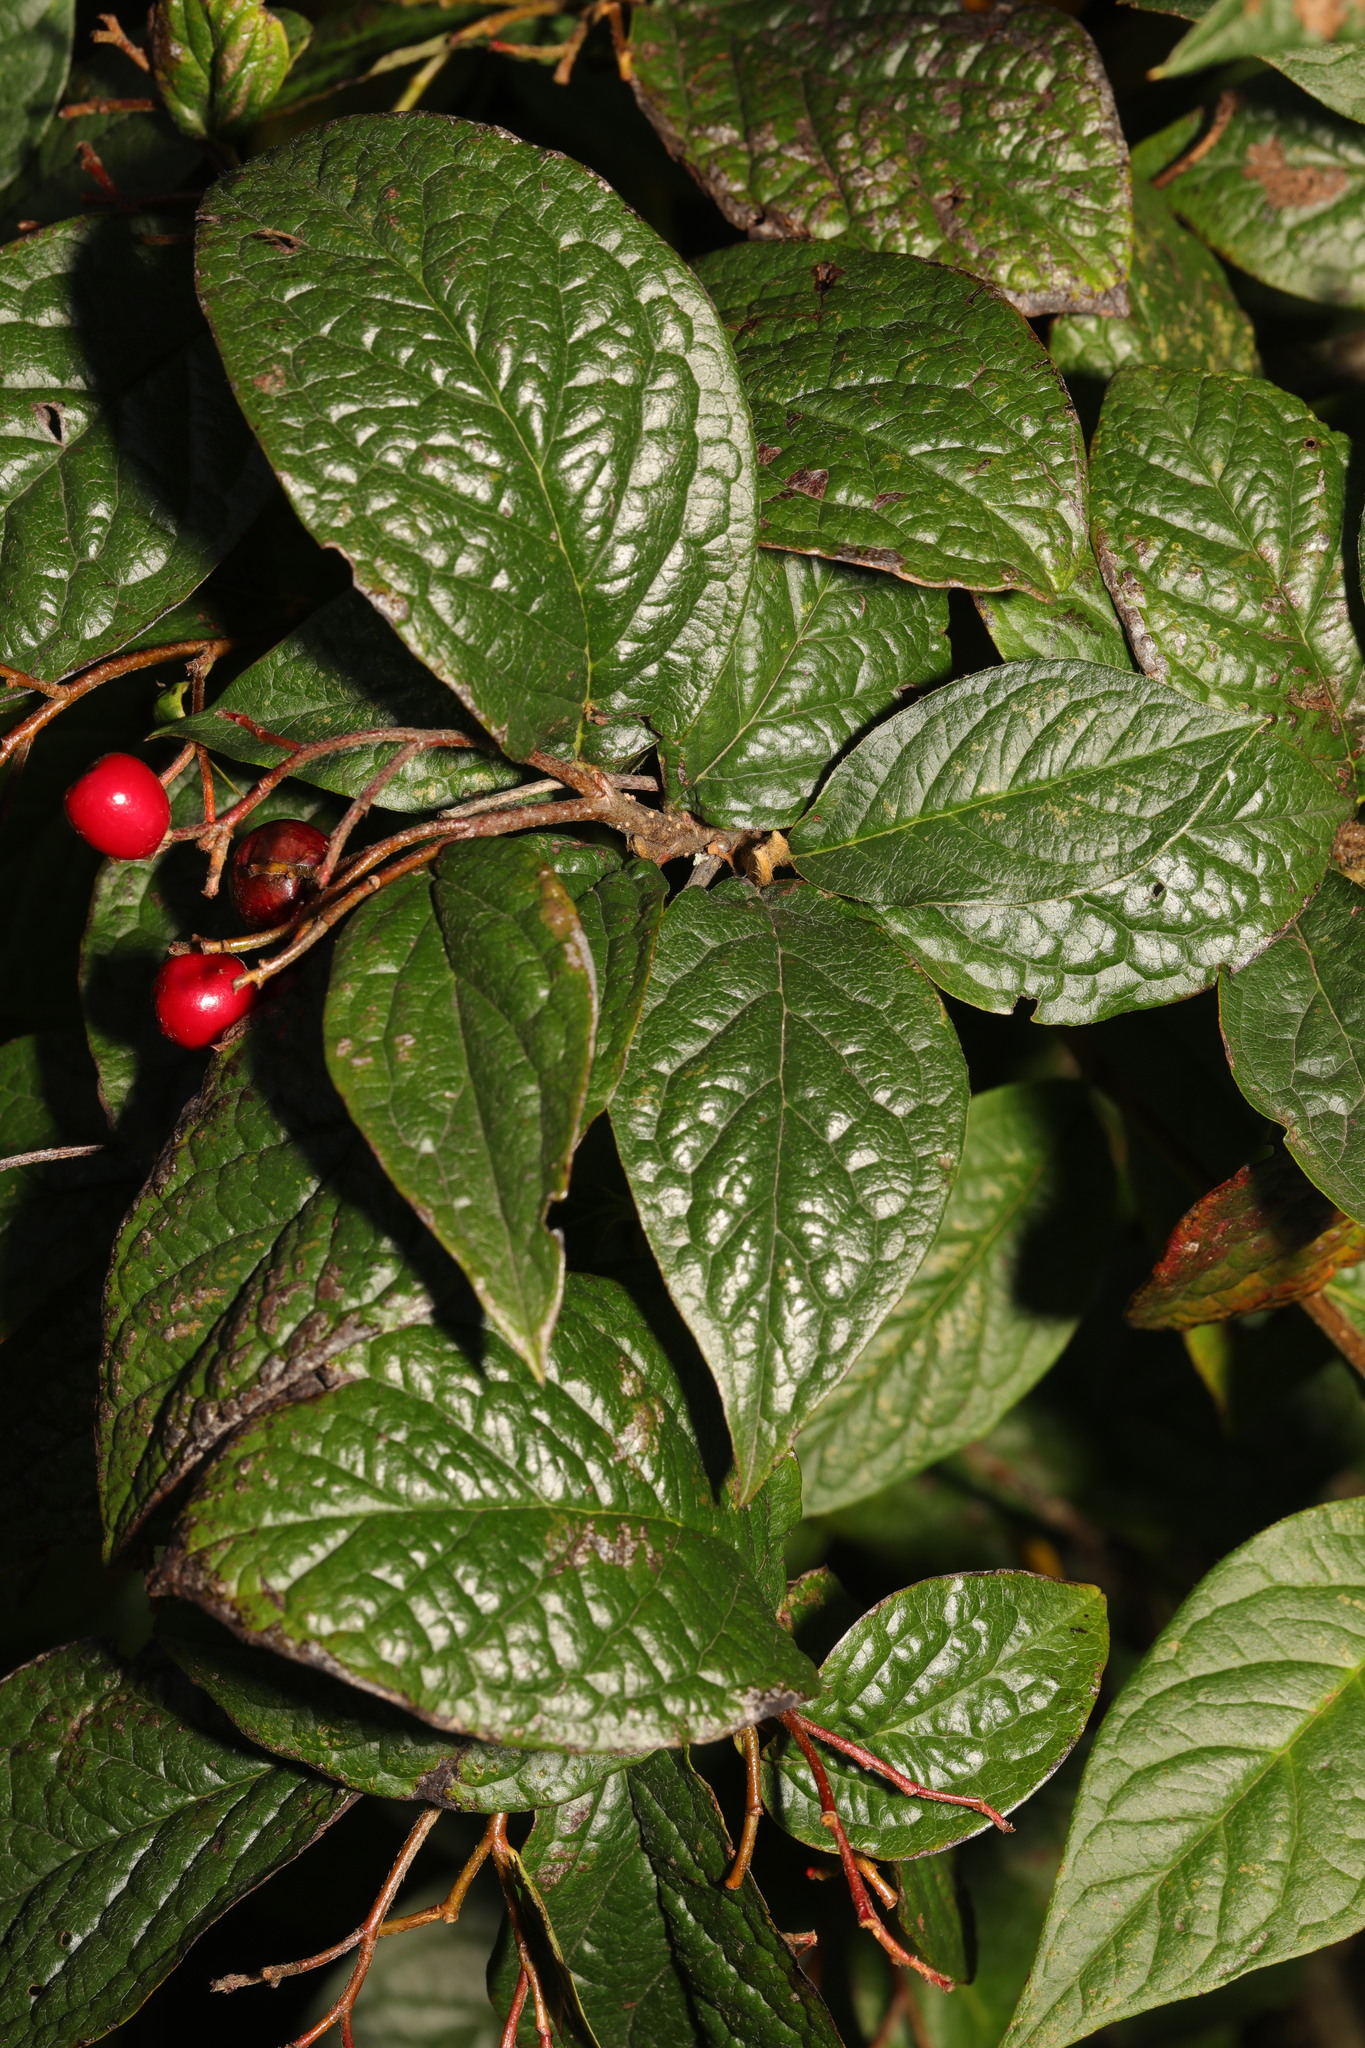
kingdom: Plantae
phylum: Tracheophyta
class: Magnoliopsida
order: Rosales
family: Rosaceae
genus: Cotoneaster
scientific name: Cotoneaster bullatus
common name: Hollyberry cotoneaster
